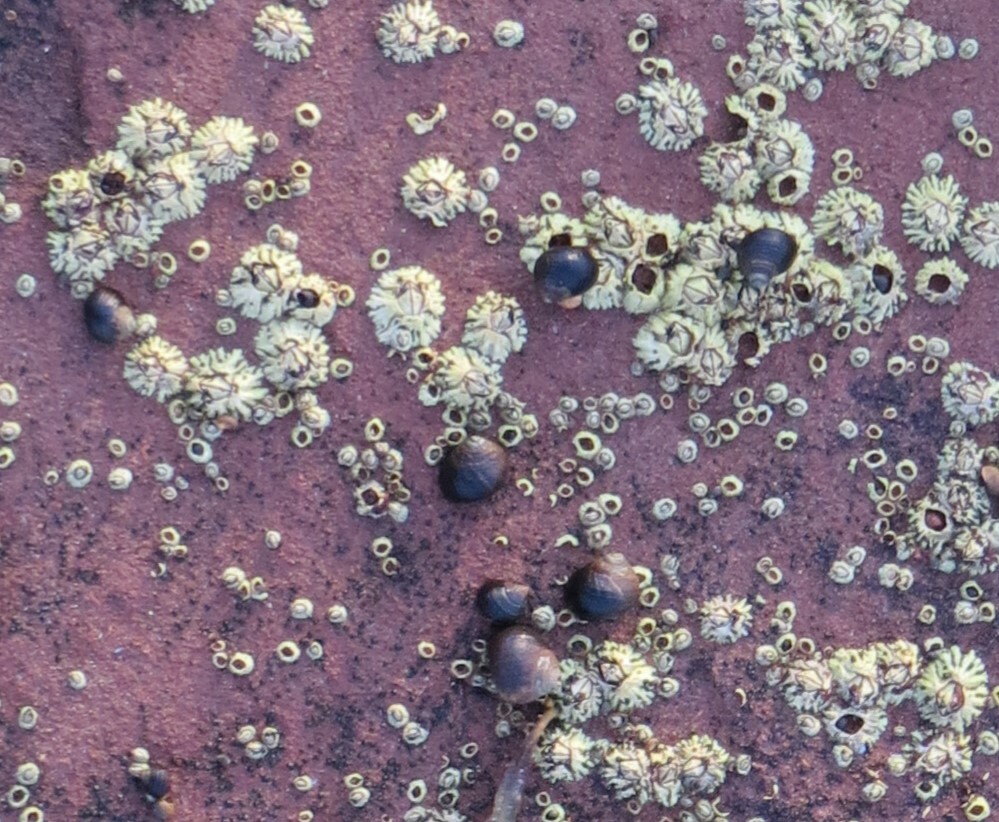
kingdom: Animalia
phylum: Arthropoda
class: Maxillopoda
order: Sessilia
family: Archaeobalanidae
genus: Semibalanus
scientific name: Semibalanus balanoides
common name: Acorn barnacle
